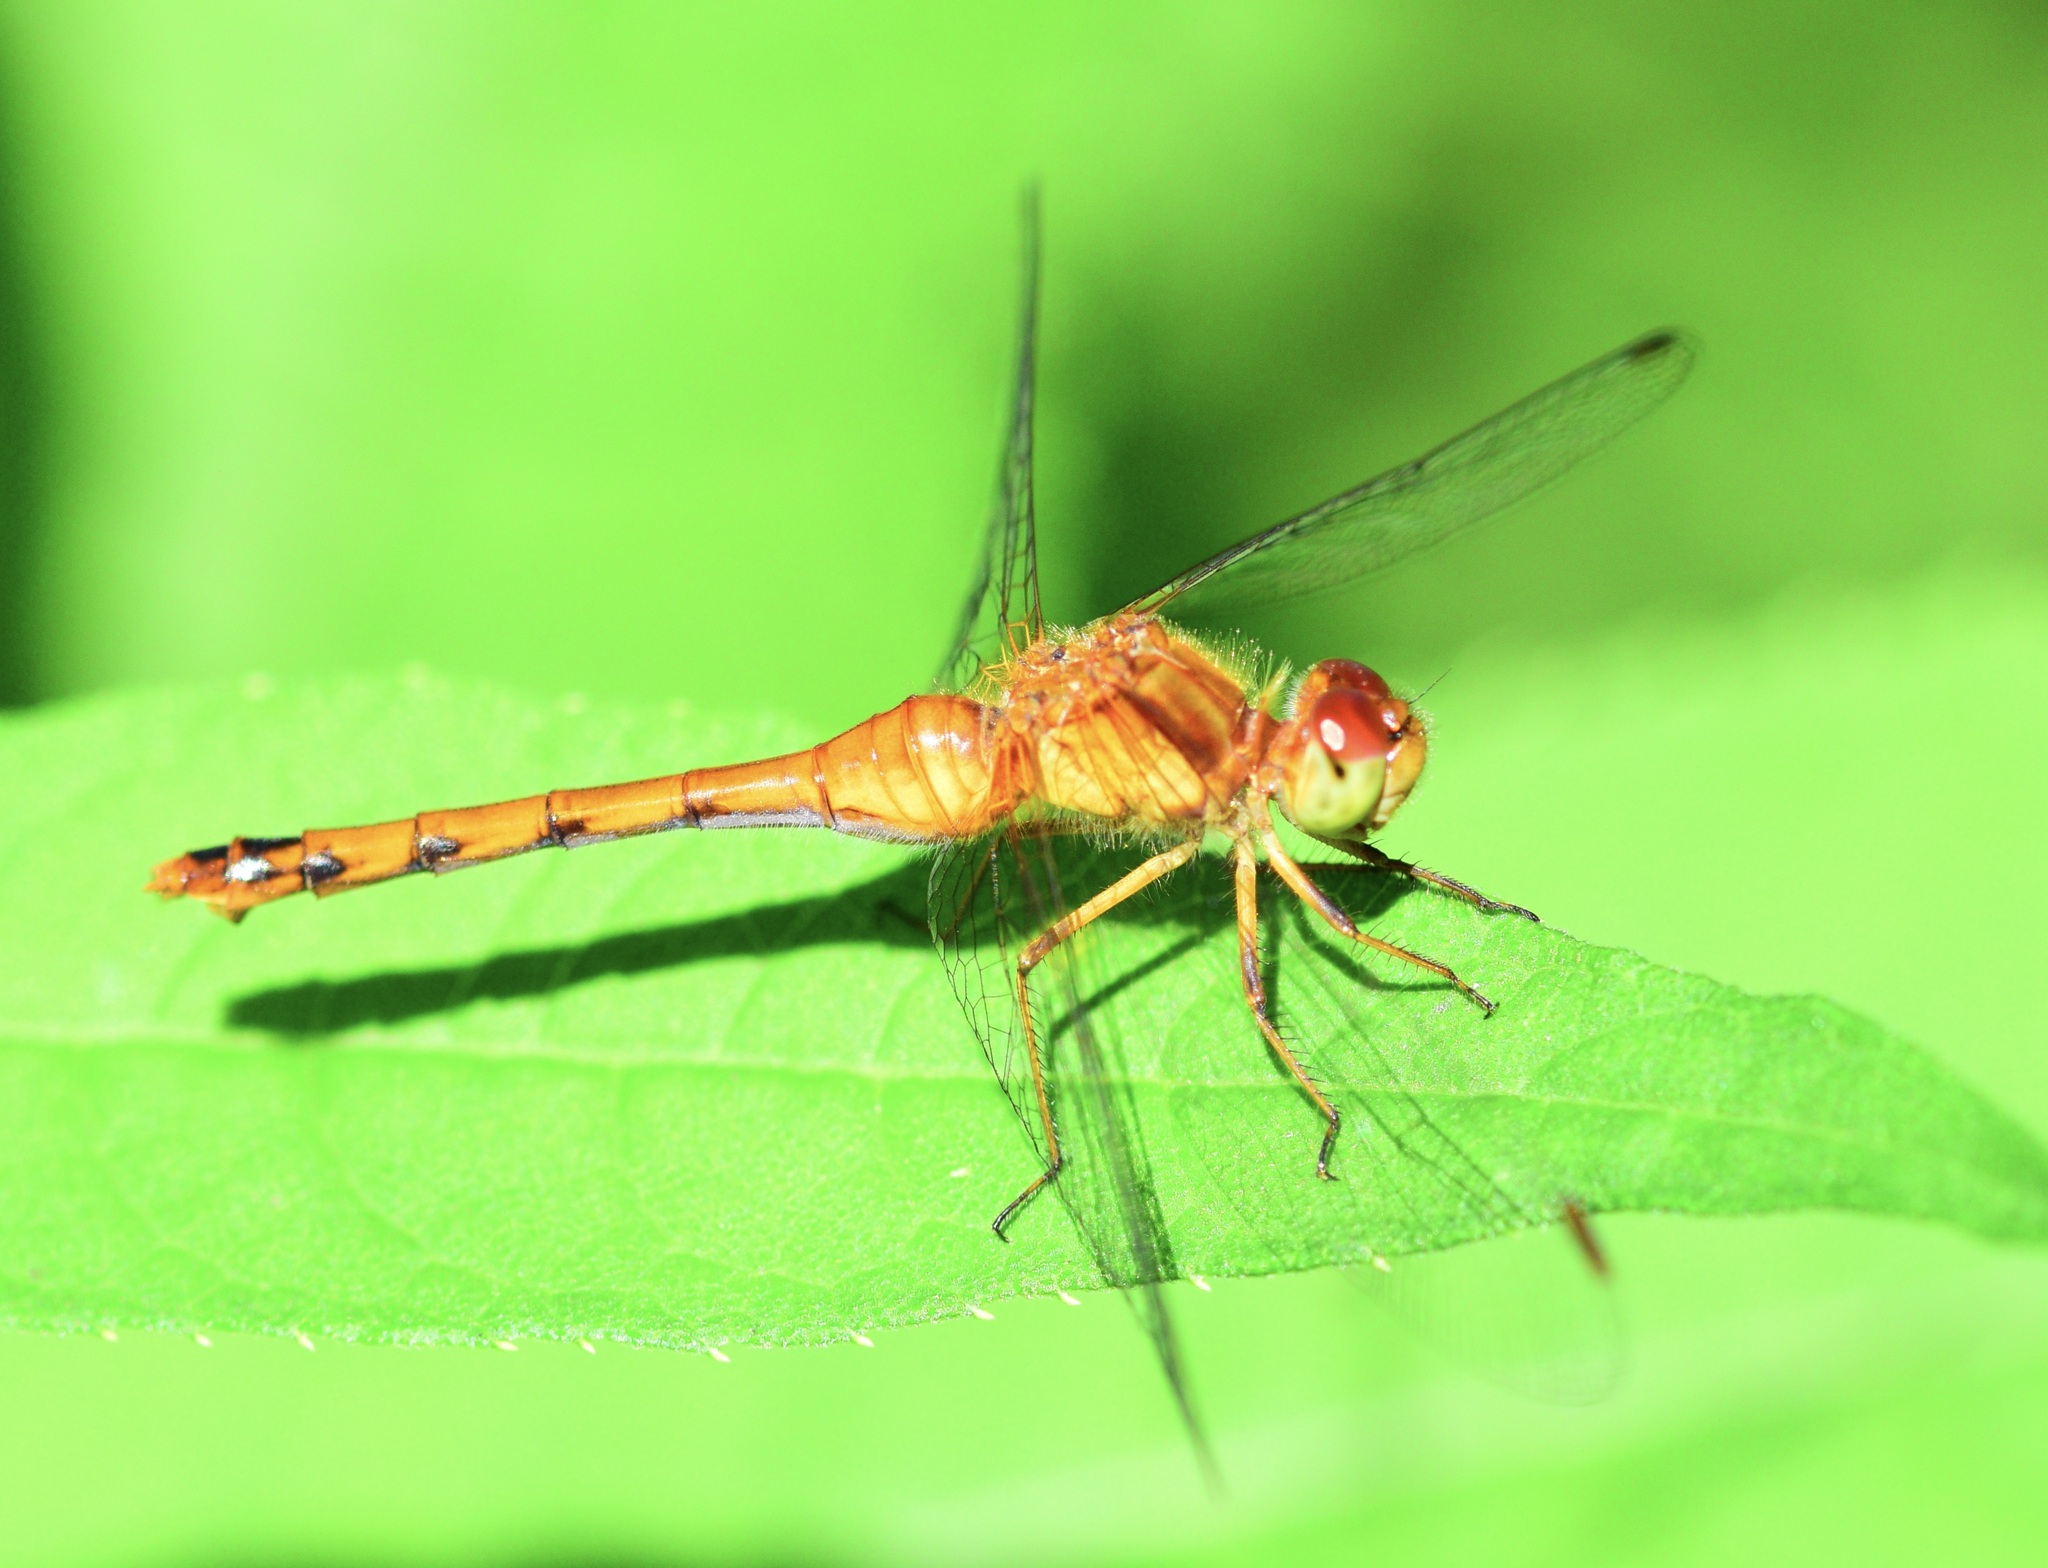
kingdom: Animalia
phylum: Arthropoda
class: Insecta
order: Odonata
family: Libellulidae
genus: Sympetrum
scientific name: Sympetrum vicinum
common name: Autumn meadowhawk
